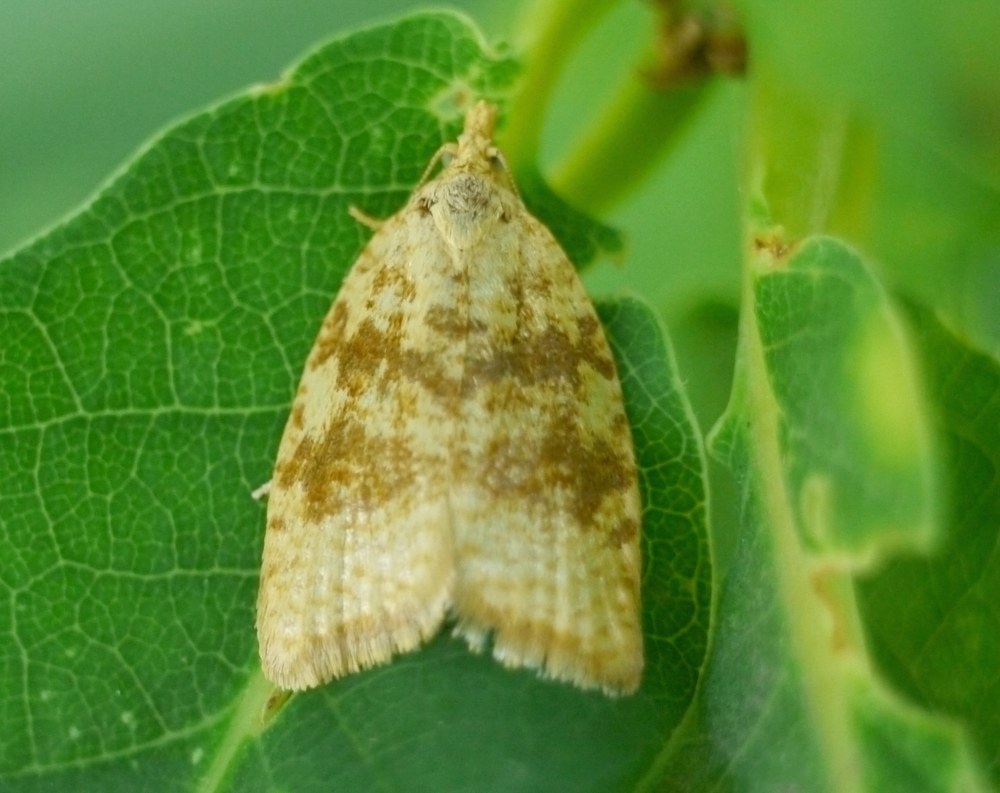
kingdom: Animalia
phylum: Arthropoda
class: Insecta
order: Lepidoptera
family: Tortricidae
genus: Aleimma
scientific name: Aleimma loeflingiana
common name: Yellow oak button
